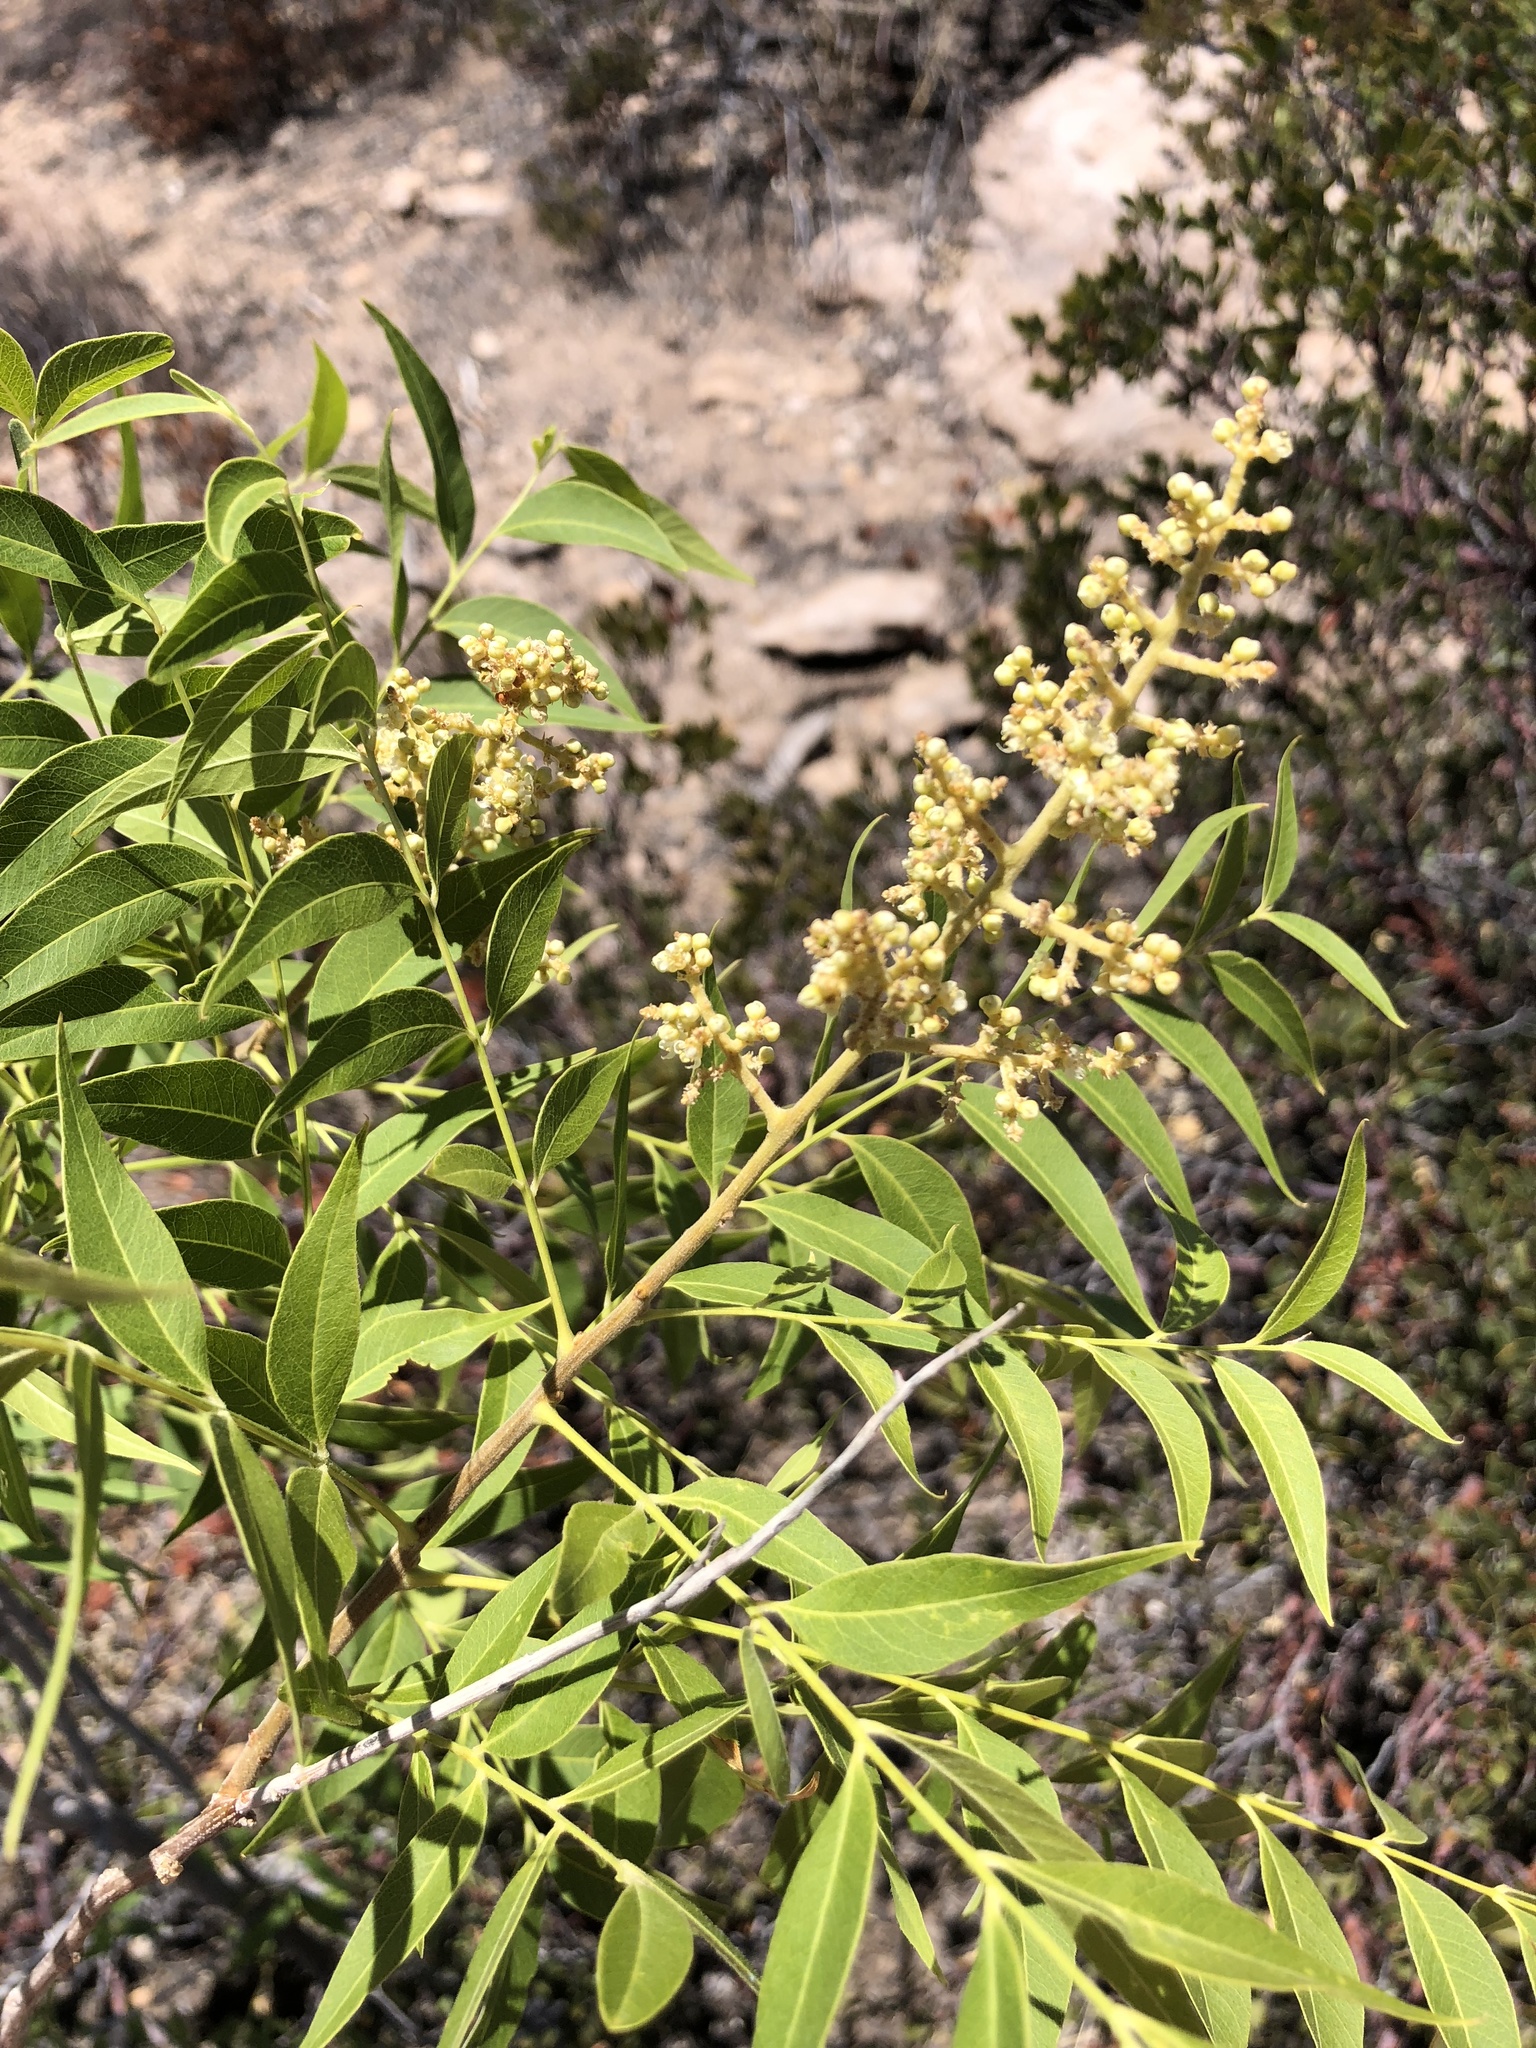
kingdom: Plantae
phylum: Tracheophyta
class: Magnoliopsida
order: Sapindales
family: Sapindaceae
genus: Sapindus
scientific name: Sapindus drummondii
